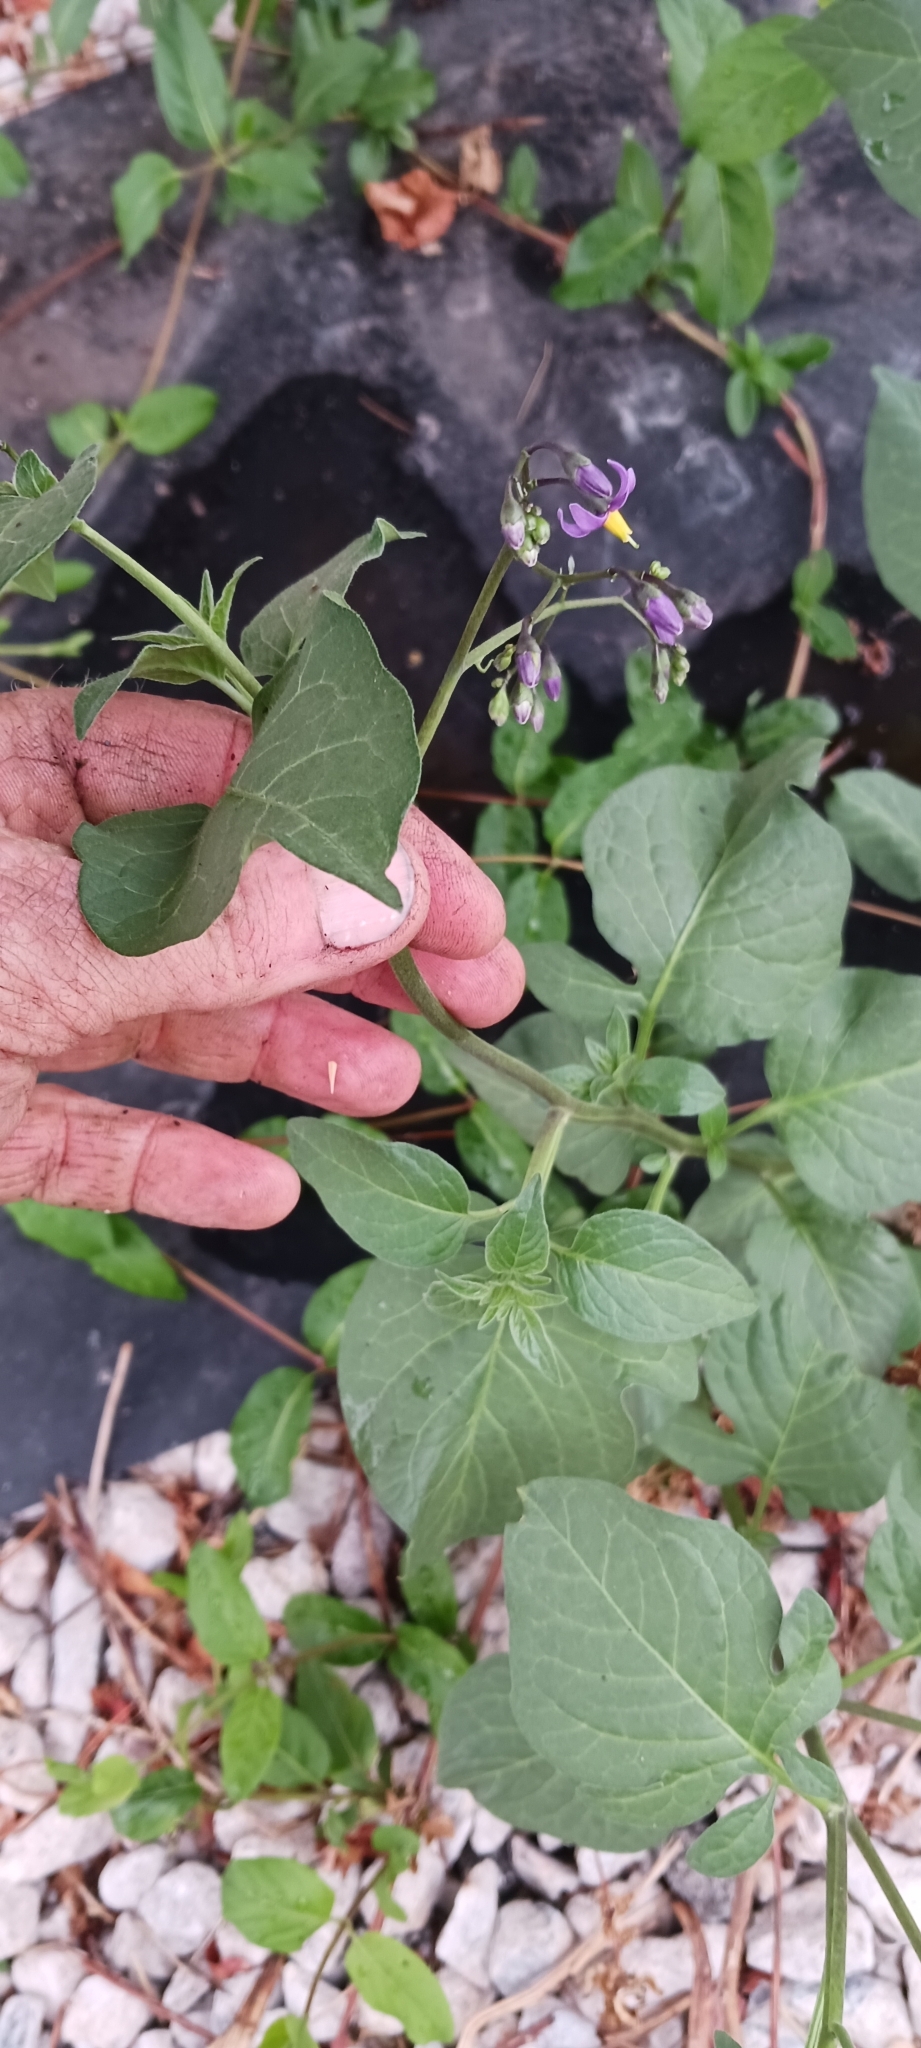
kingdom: Plantae
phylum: Tracheophyta
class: Magnoliopsida
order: Solanales
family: Solanaceae
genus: Solanum
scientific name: Solanum dulcamara
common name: Climbing nightshade
